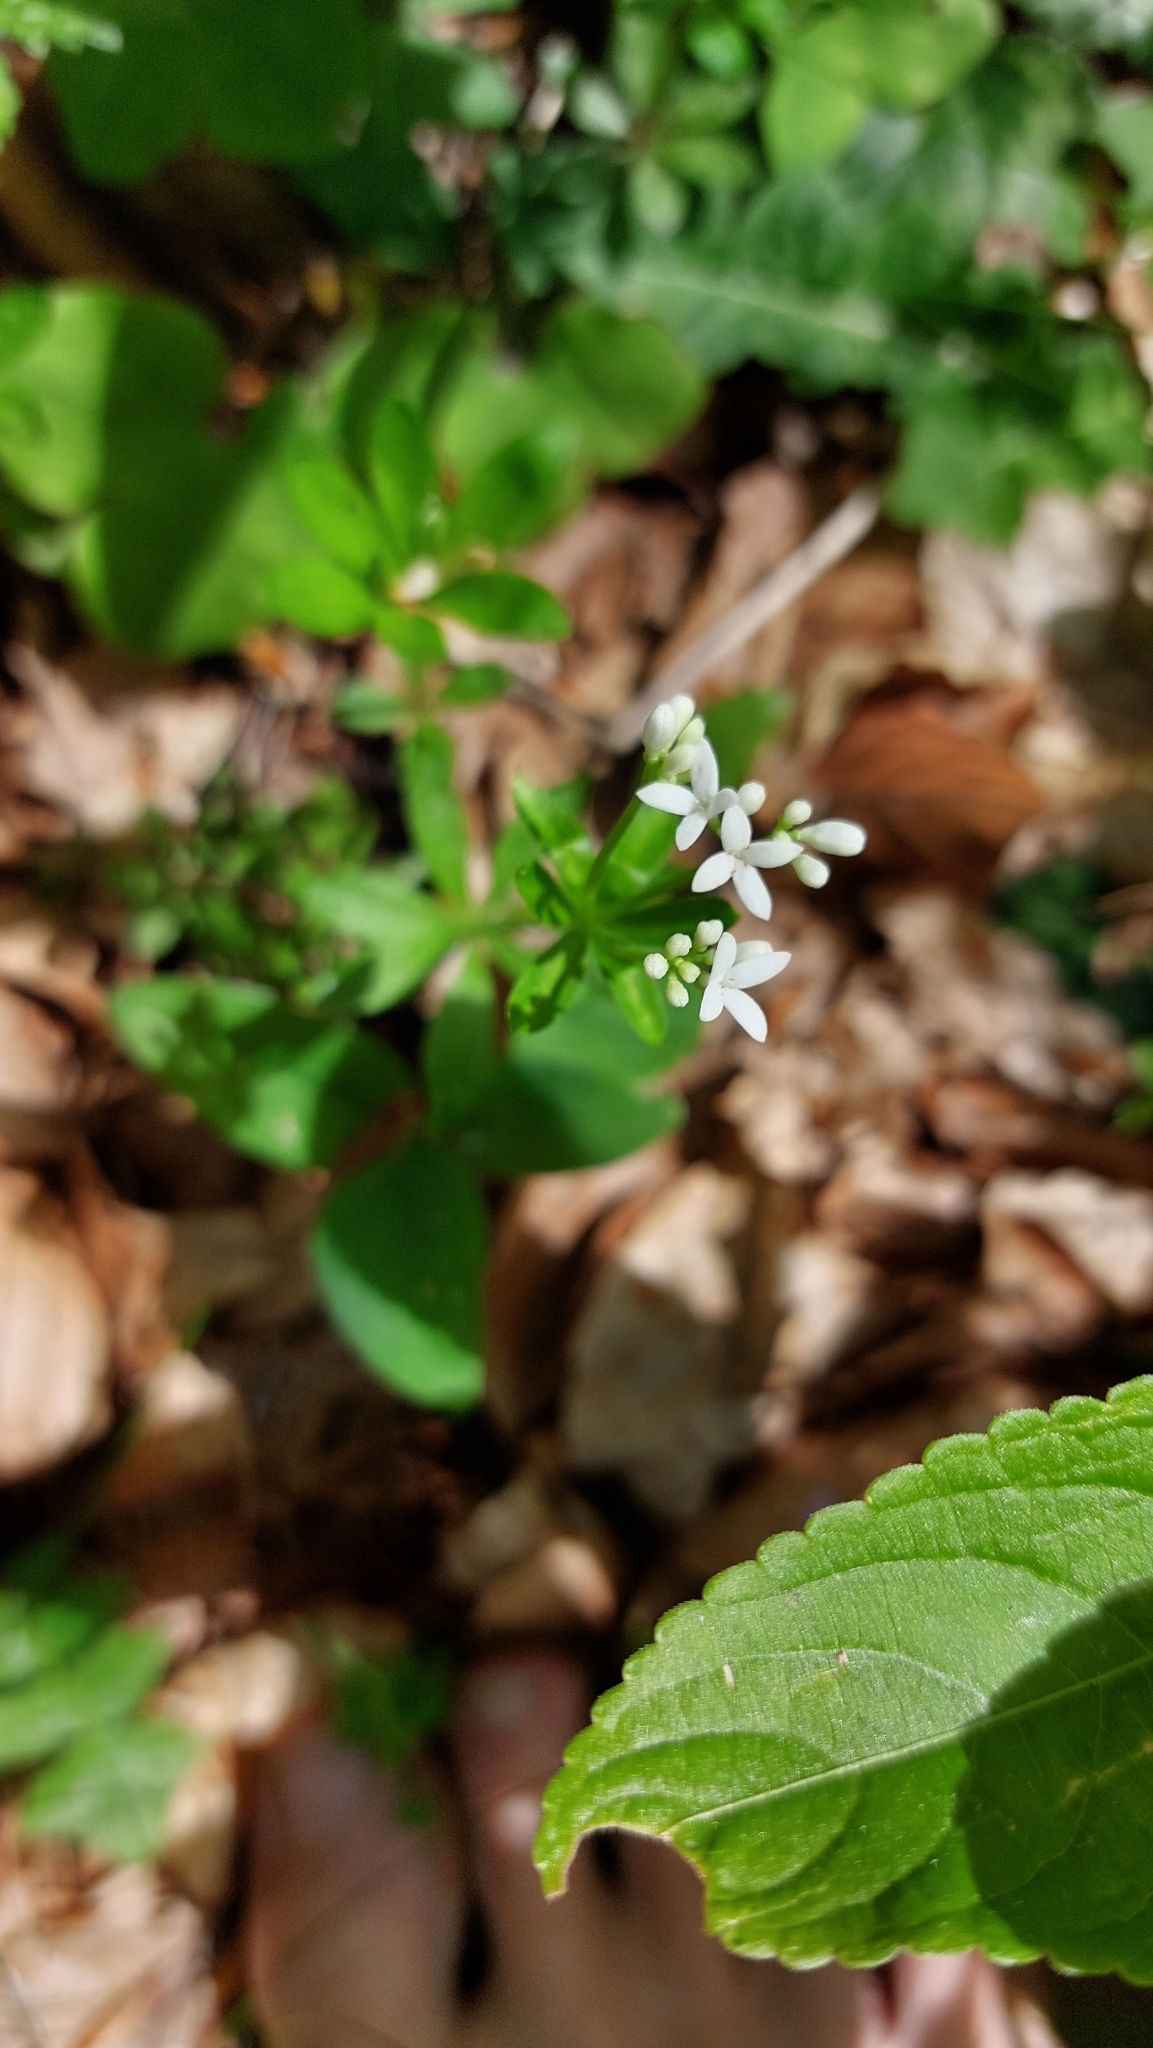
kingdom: Plantae
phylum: Tracheophyta
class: Magnoliopsida
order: Gentianales
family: Rubiaceae
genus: Galium
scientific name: Galium odoratum
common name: Sweet woodruff
